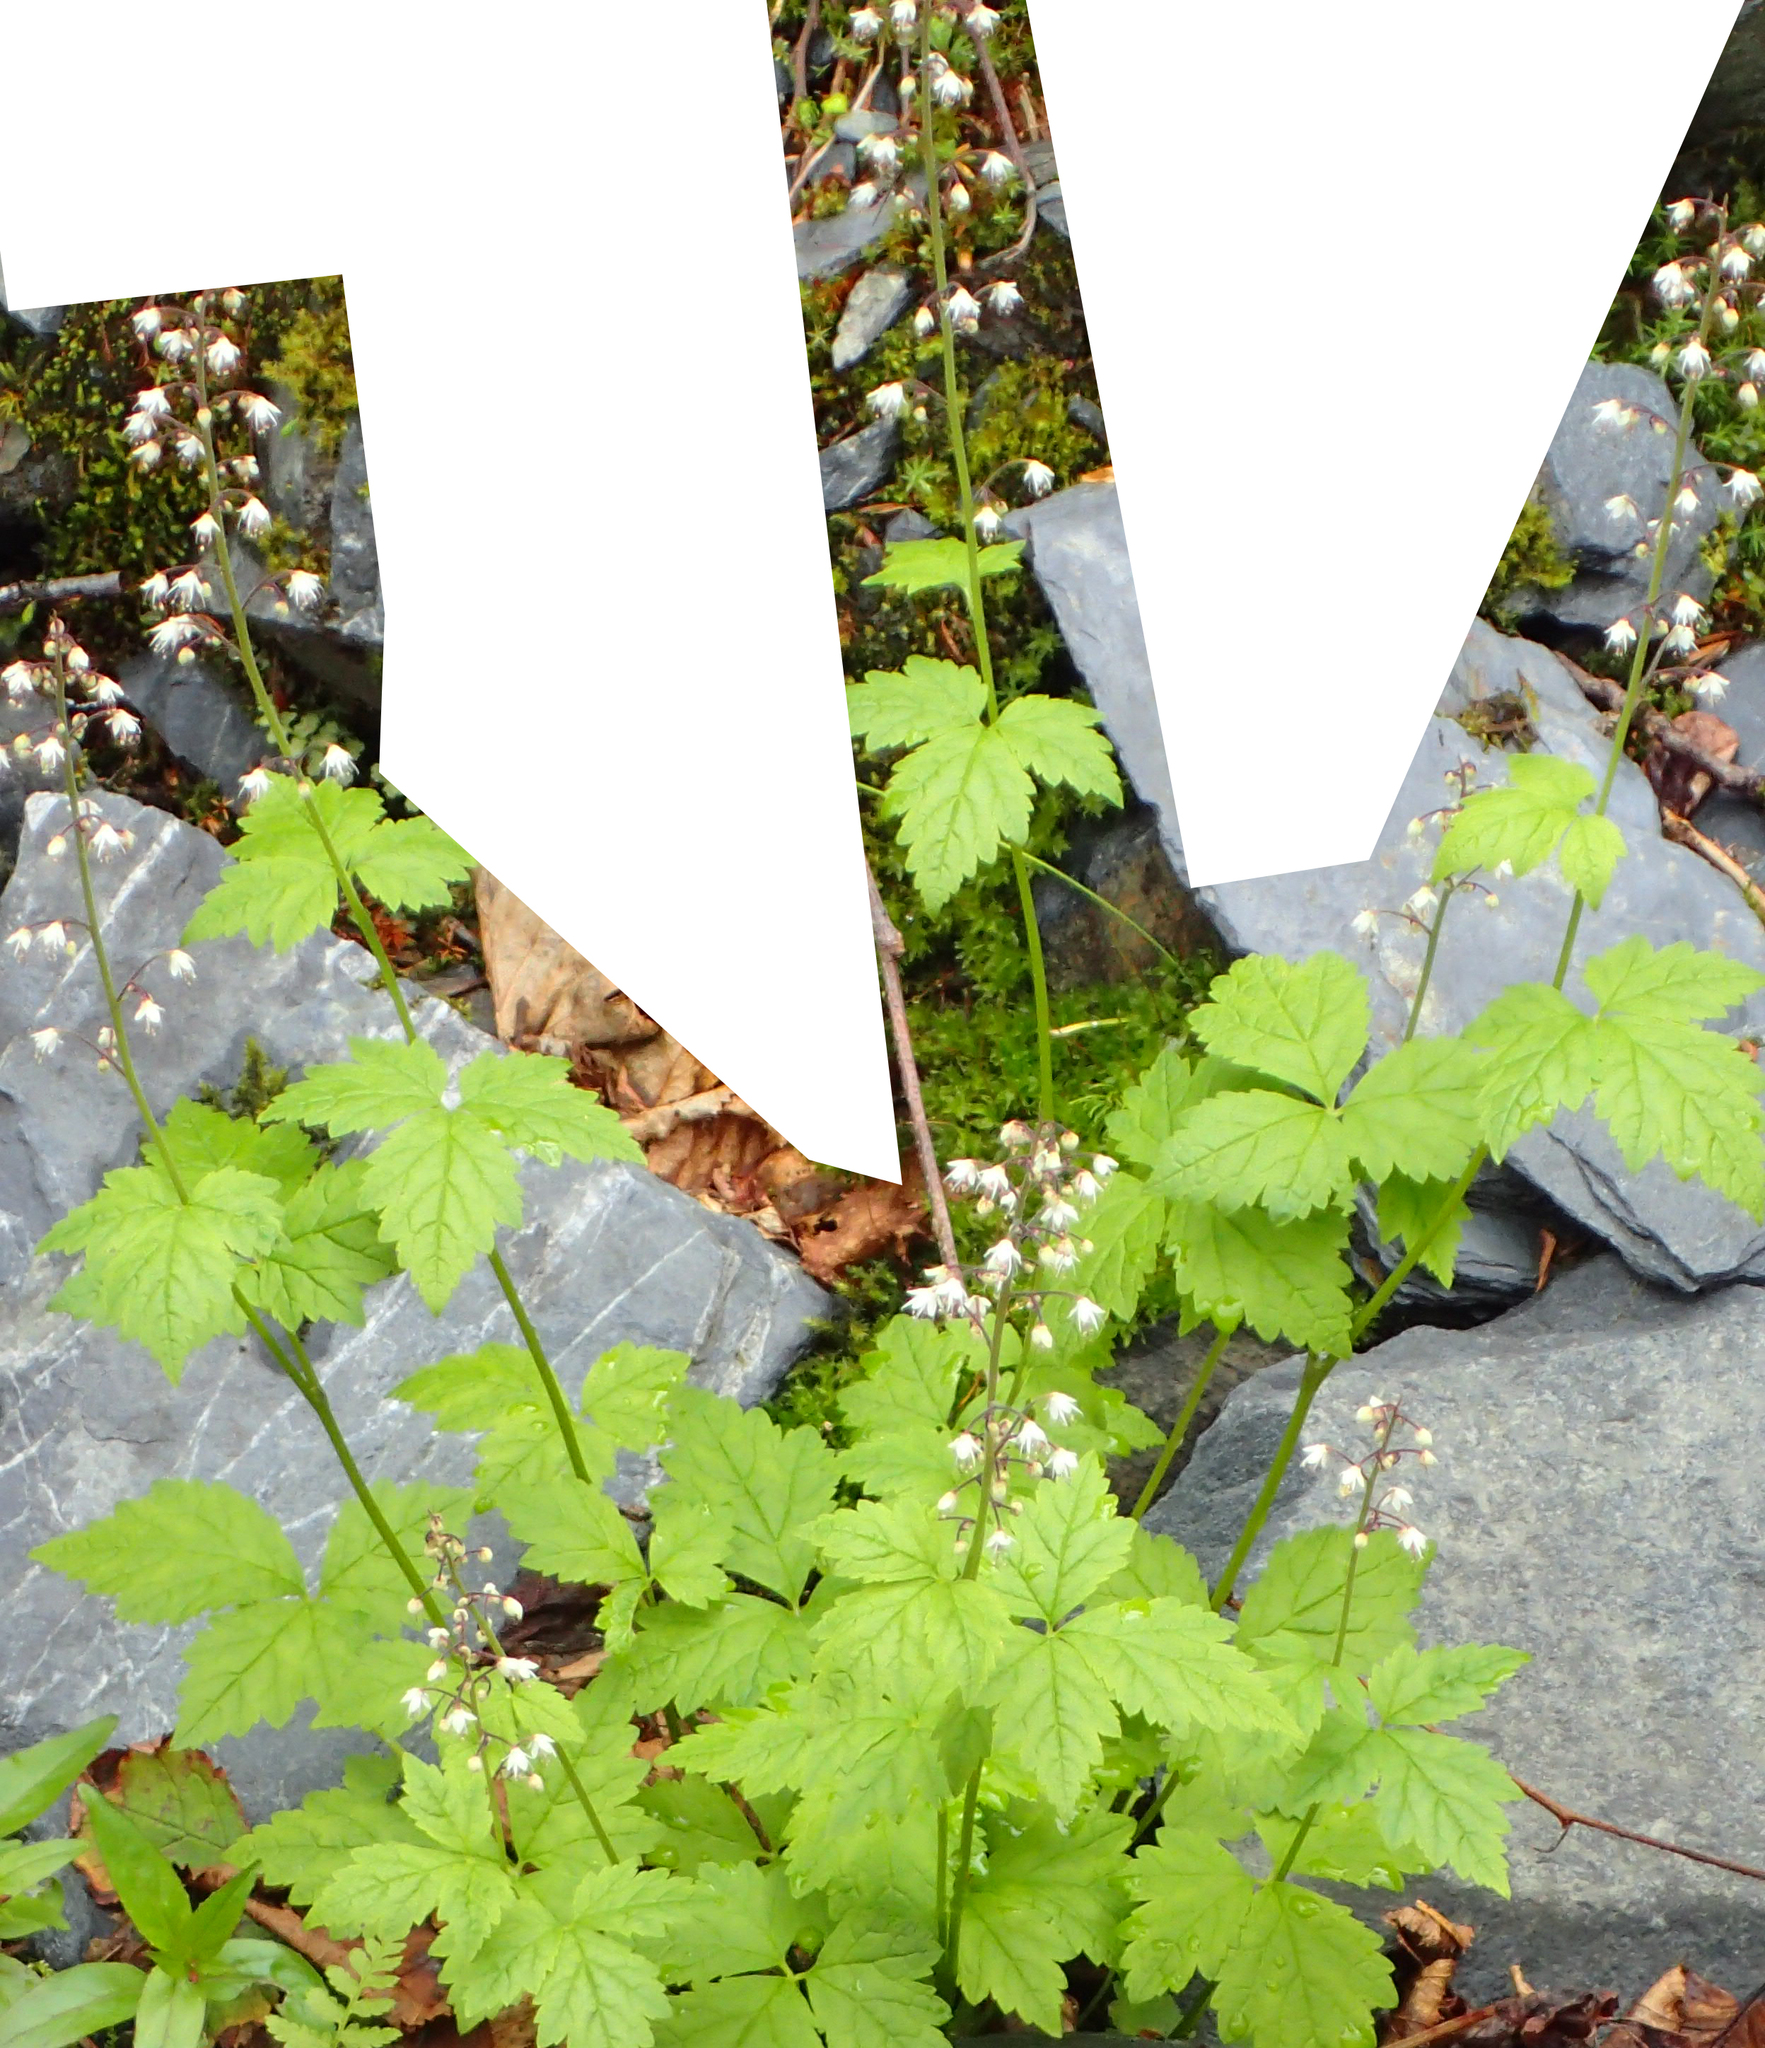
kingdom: Plantae
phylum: Tracheophyta
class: Magnoliopsida
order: Saxifragales
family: Saxifragaceae
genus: Tiarella
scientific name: Tiarella trifoliata
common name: Sugar-scoop
